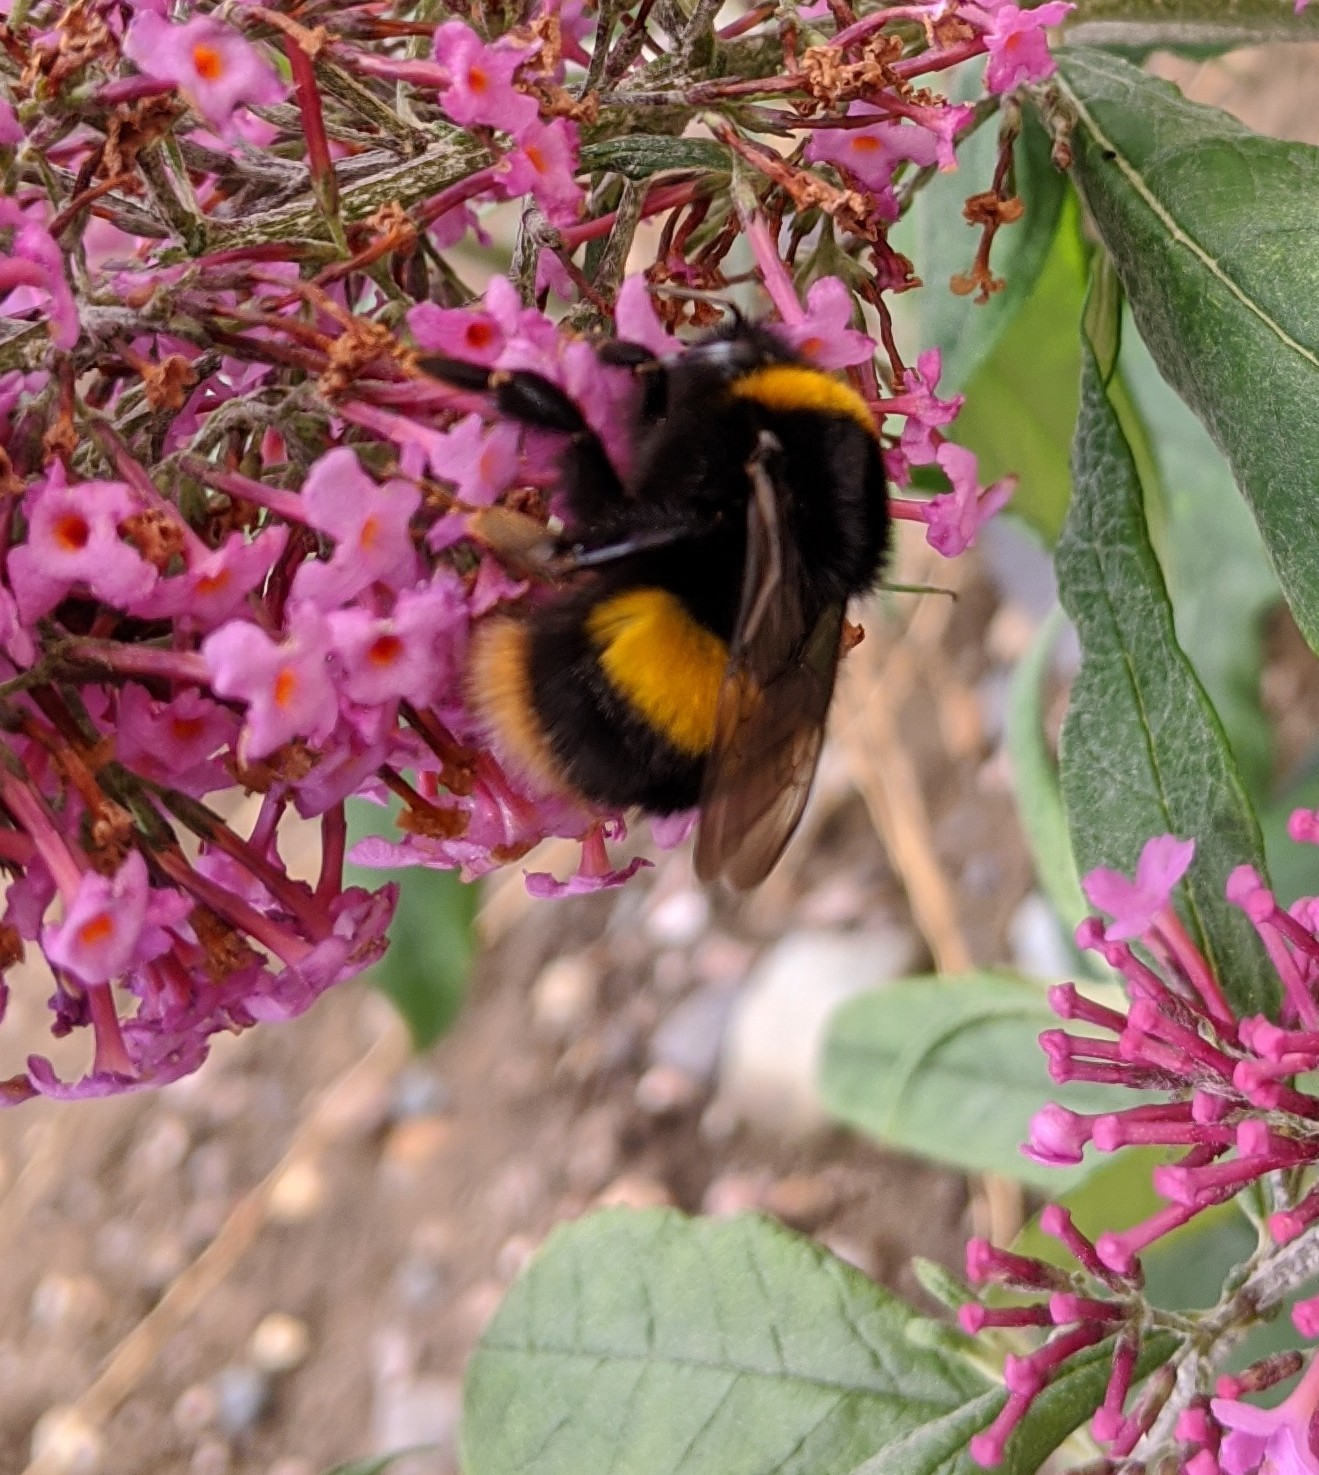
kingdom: Animalia
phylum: Arthropoda
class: Insecta
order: Hymenoptera
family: Apidae
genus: Bombus
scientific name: Bombus terrestris
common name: Buff-tailed bumblebee
